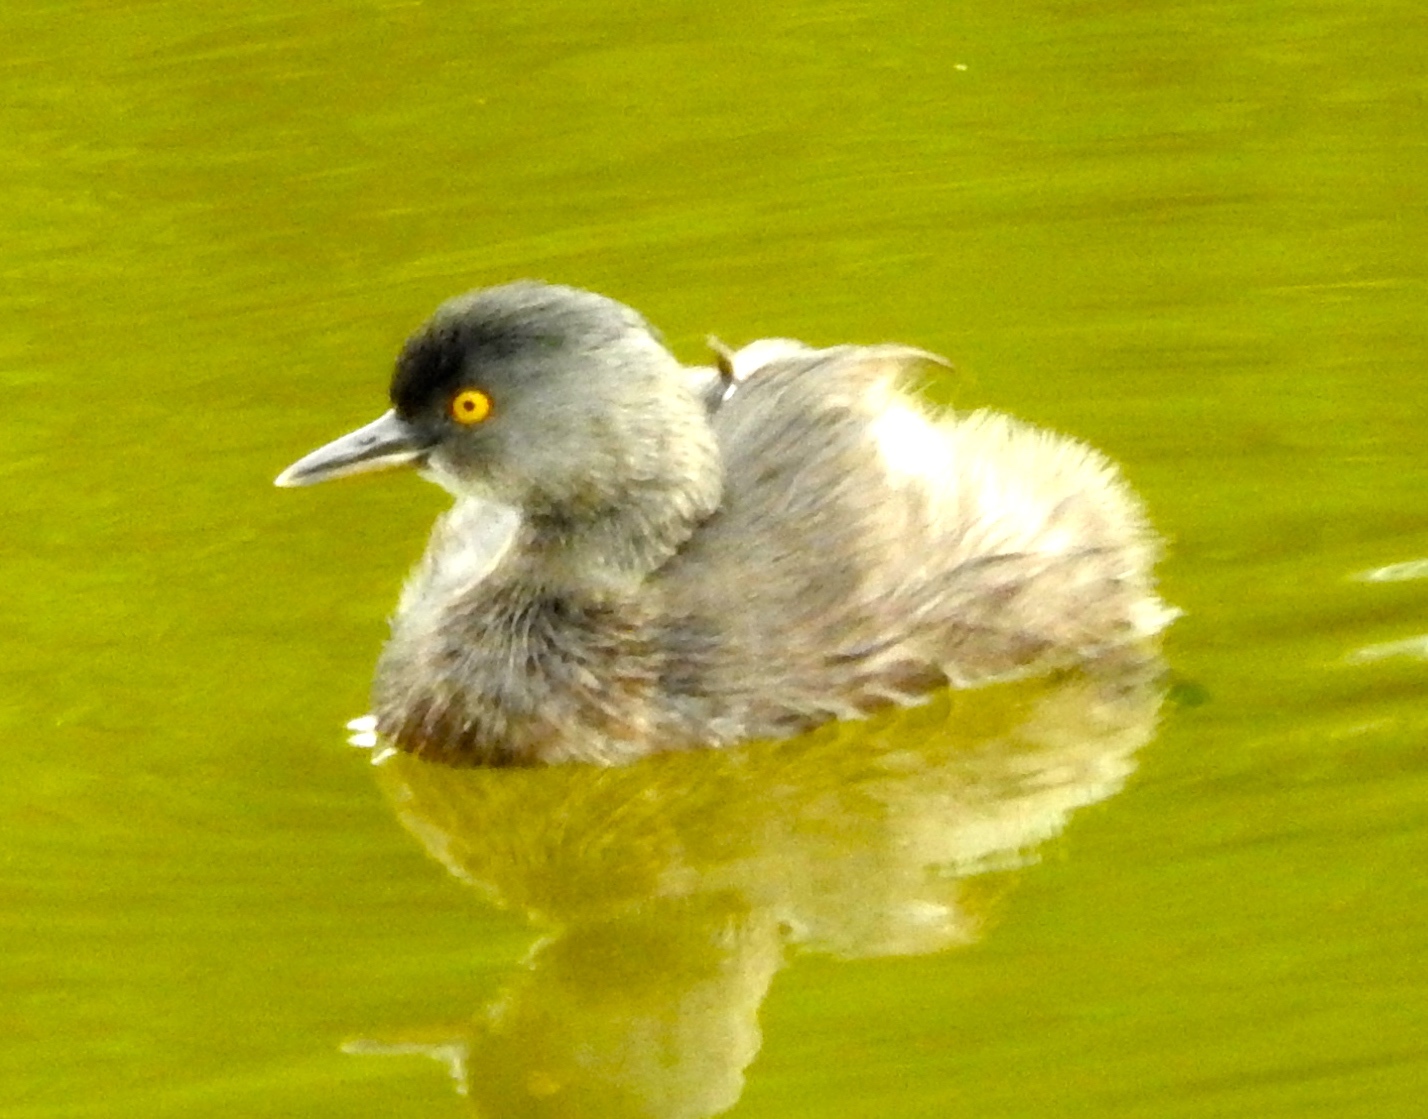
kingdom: Animalia
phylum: Chordata
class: Aves
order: Podicipediformes
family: Podicipedidae
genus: Tachybaptus
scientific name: Tachybaptus dominicus
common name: Least grebe
